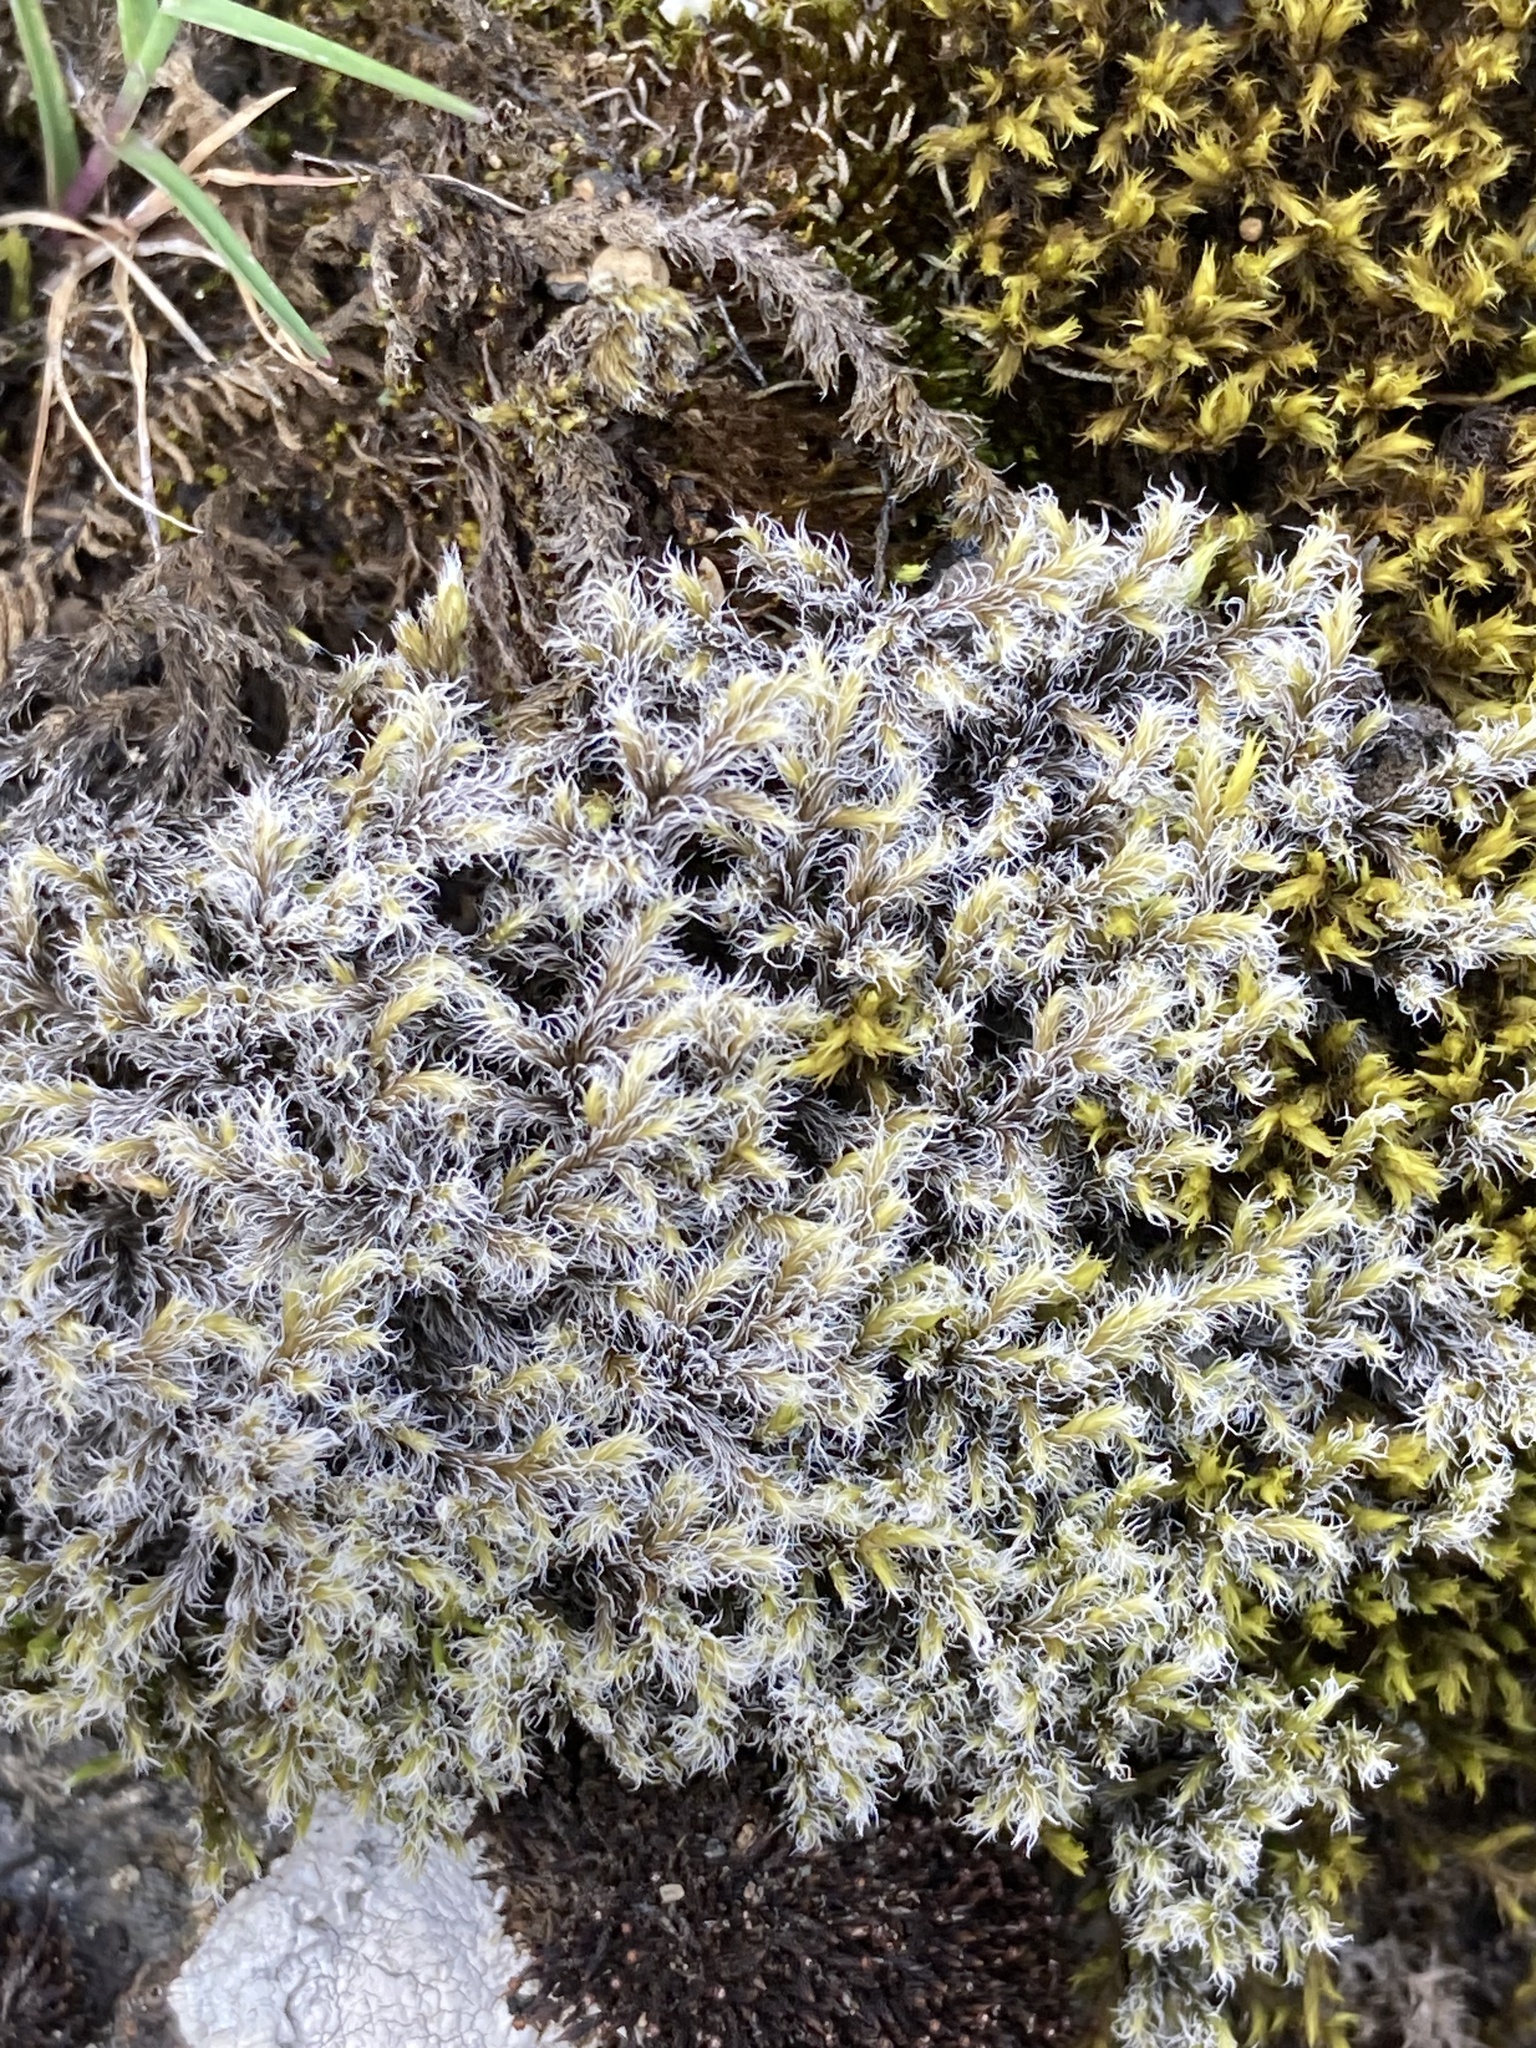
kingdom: Plantae
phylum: Bryophyta
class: Bryopsida
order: Grimmiales
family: Grimmiaceae
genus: Racomitrium
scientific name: Racomitrium lanuginosum
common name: Hoary rock moss
